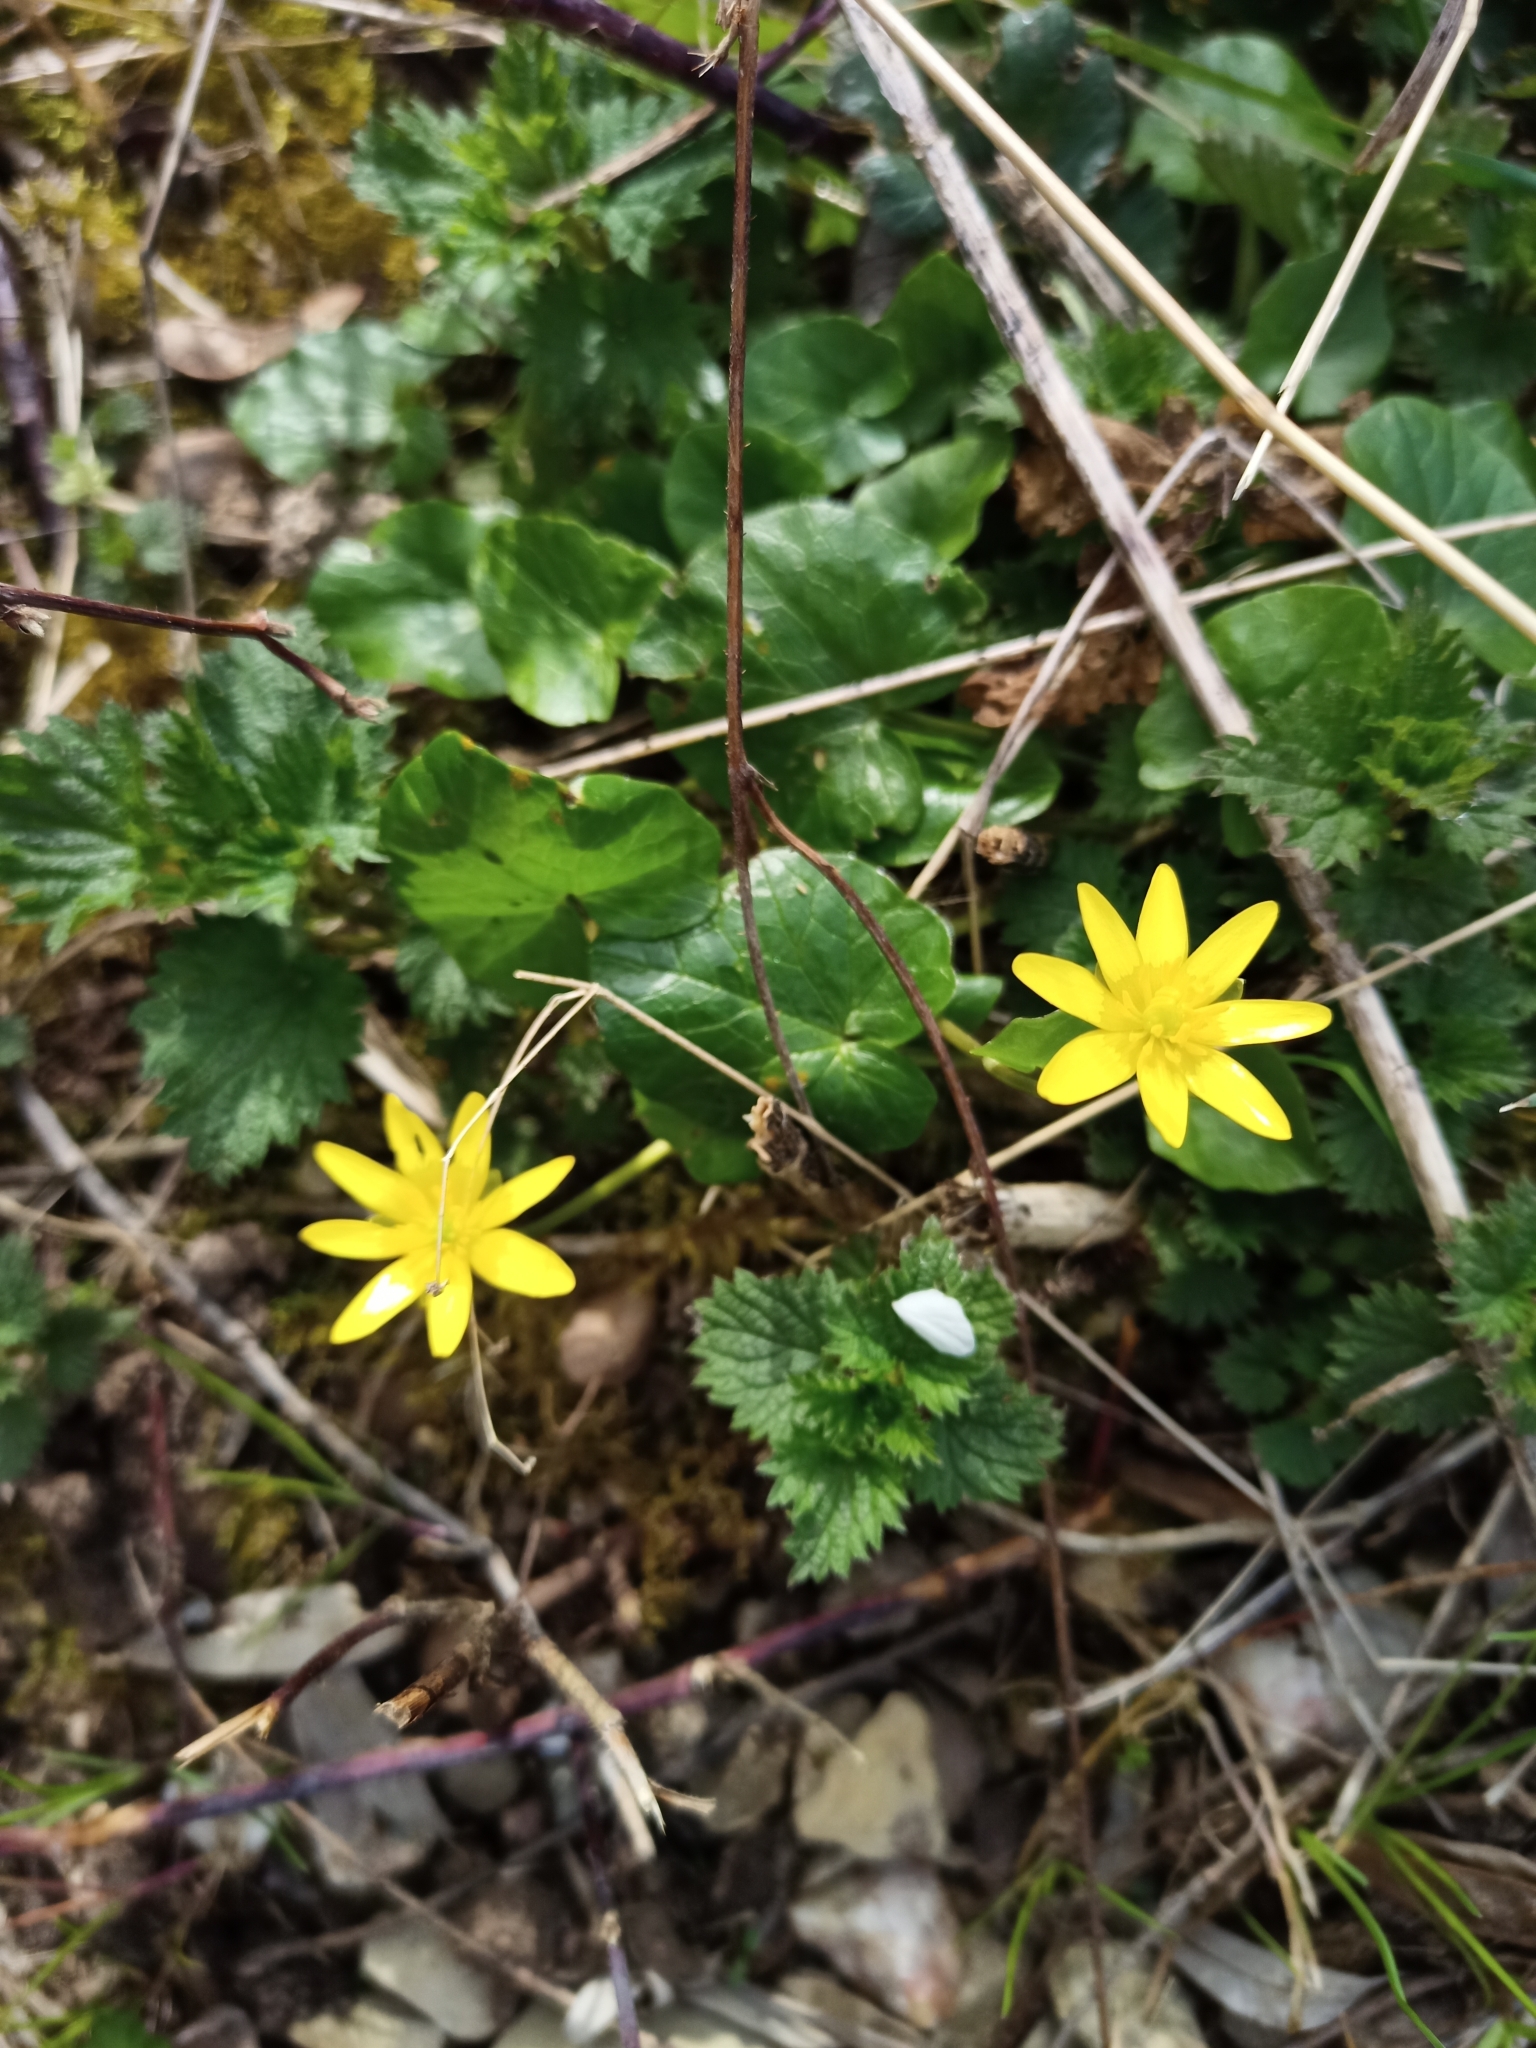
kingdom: Plantae
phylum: Tracheophyta
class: Magnoliopsida
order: Ranunculales
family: Ranunculaceae
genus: Ficaria
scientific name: Ficaria verna
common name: Lesser celandine
